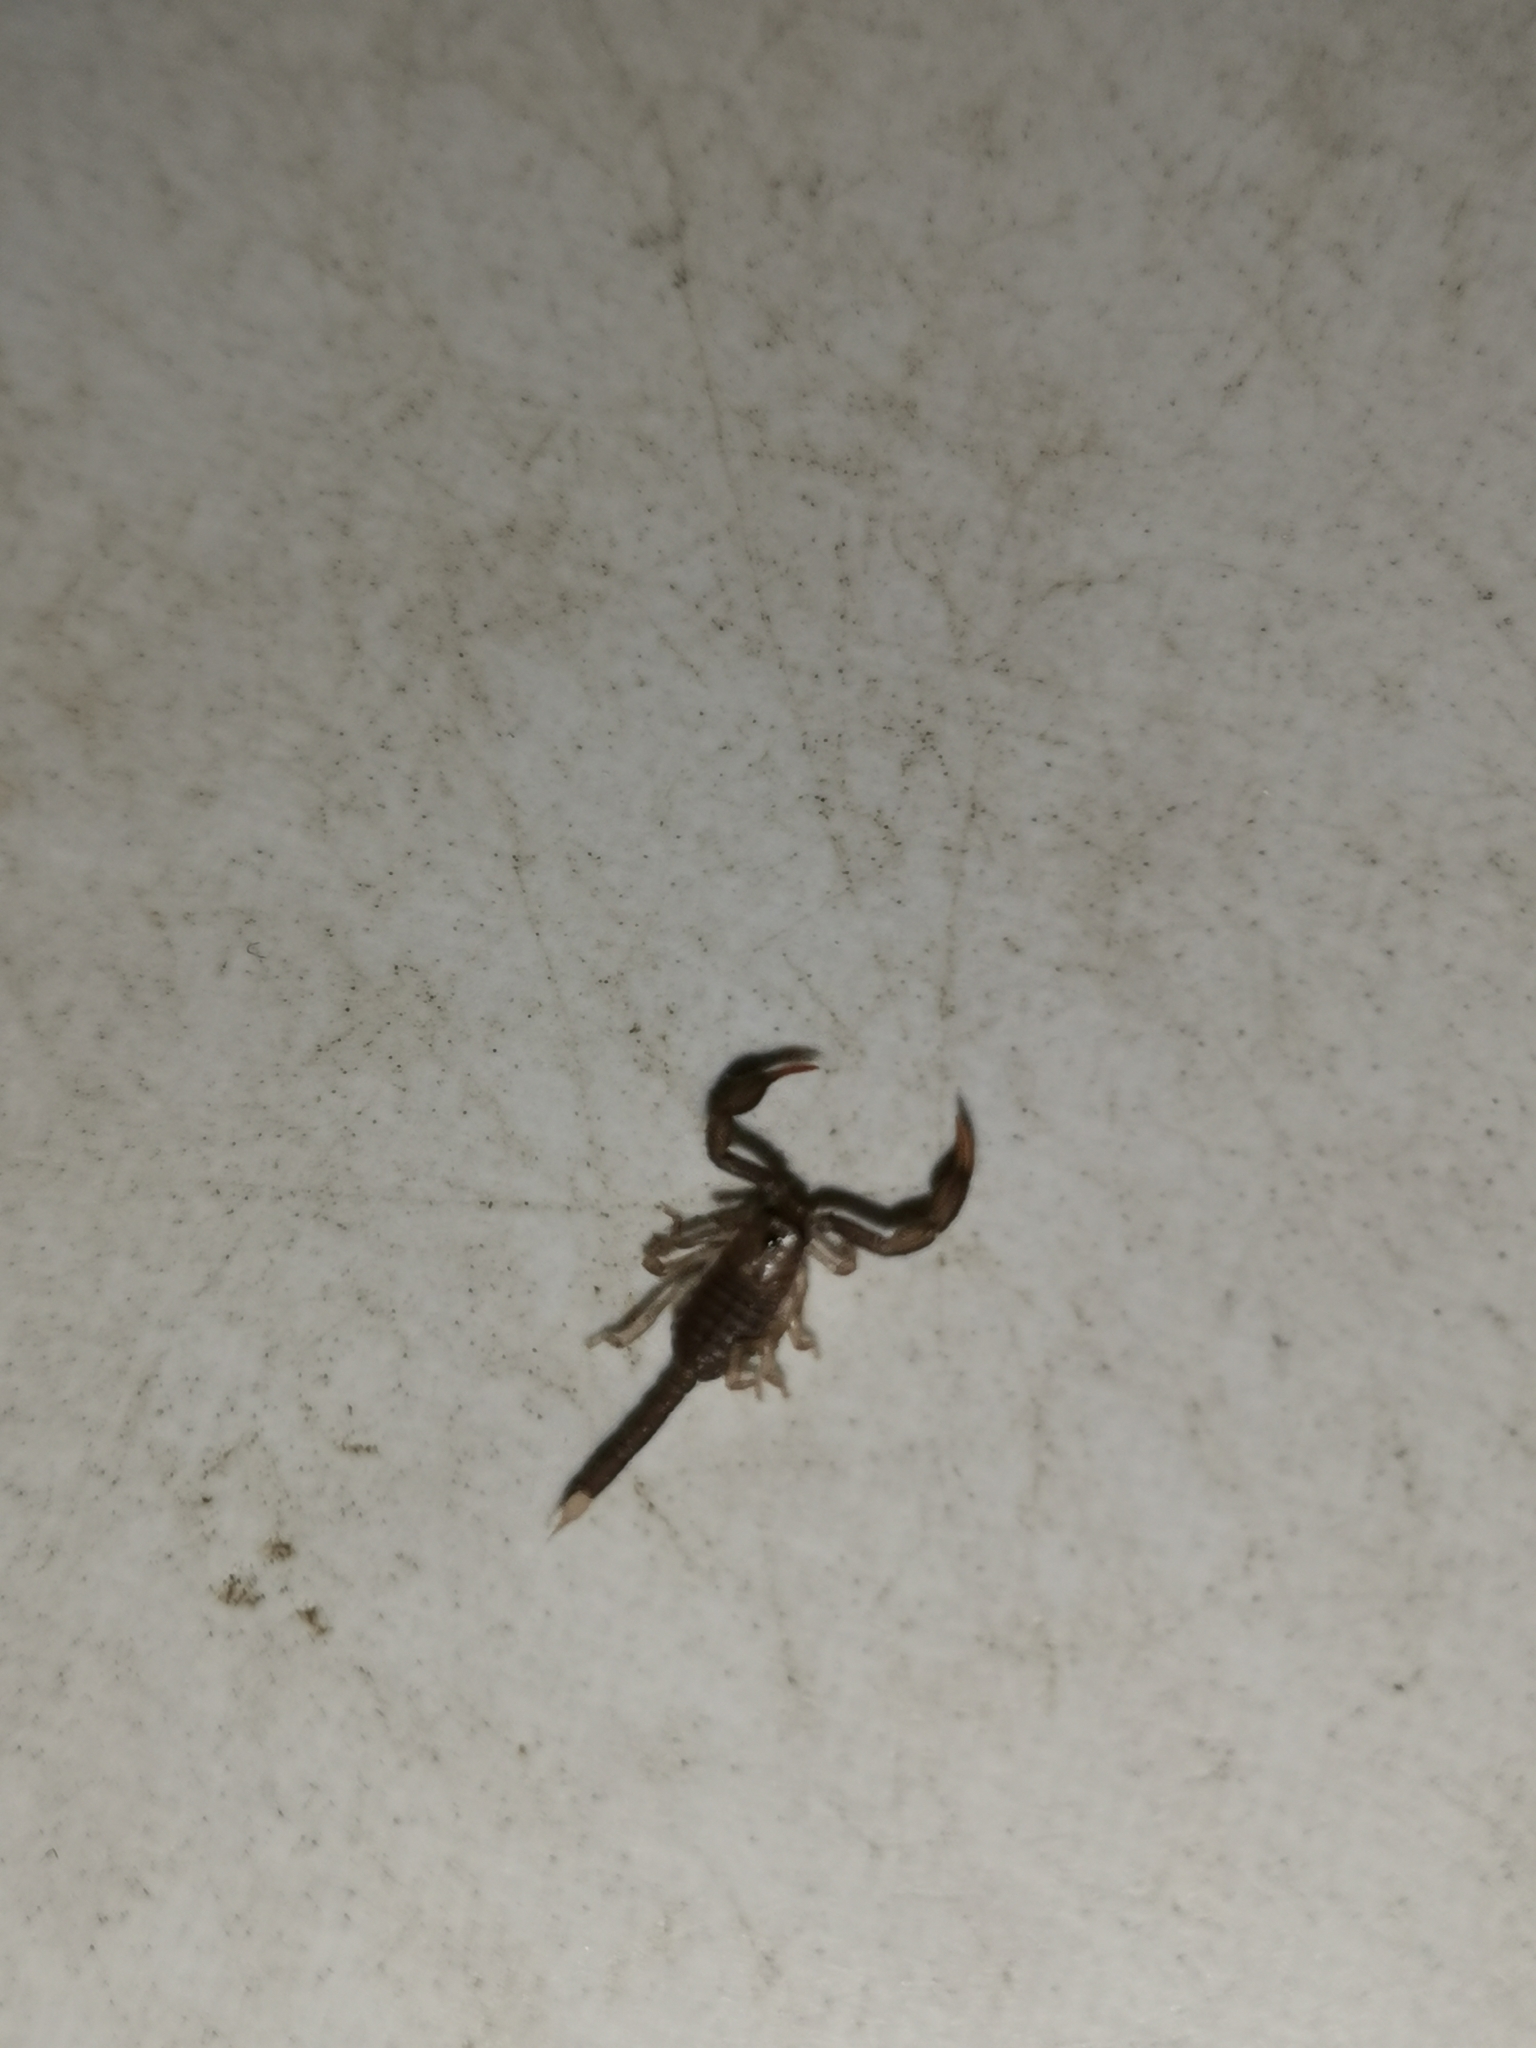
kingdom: Animalia
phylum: Arthropoda
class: Arachnida
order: Scorpiones
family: Euscorpiidae
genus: Euscorpius
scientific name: Euscorpius flavicaudis
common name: European yellow-tailed scorpion
